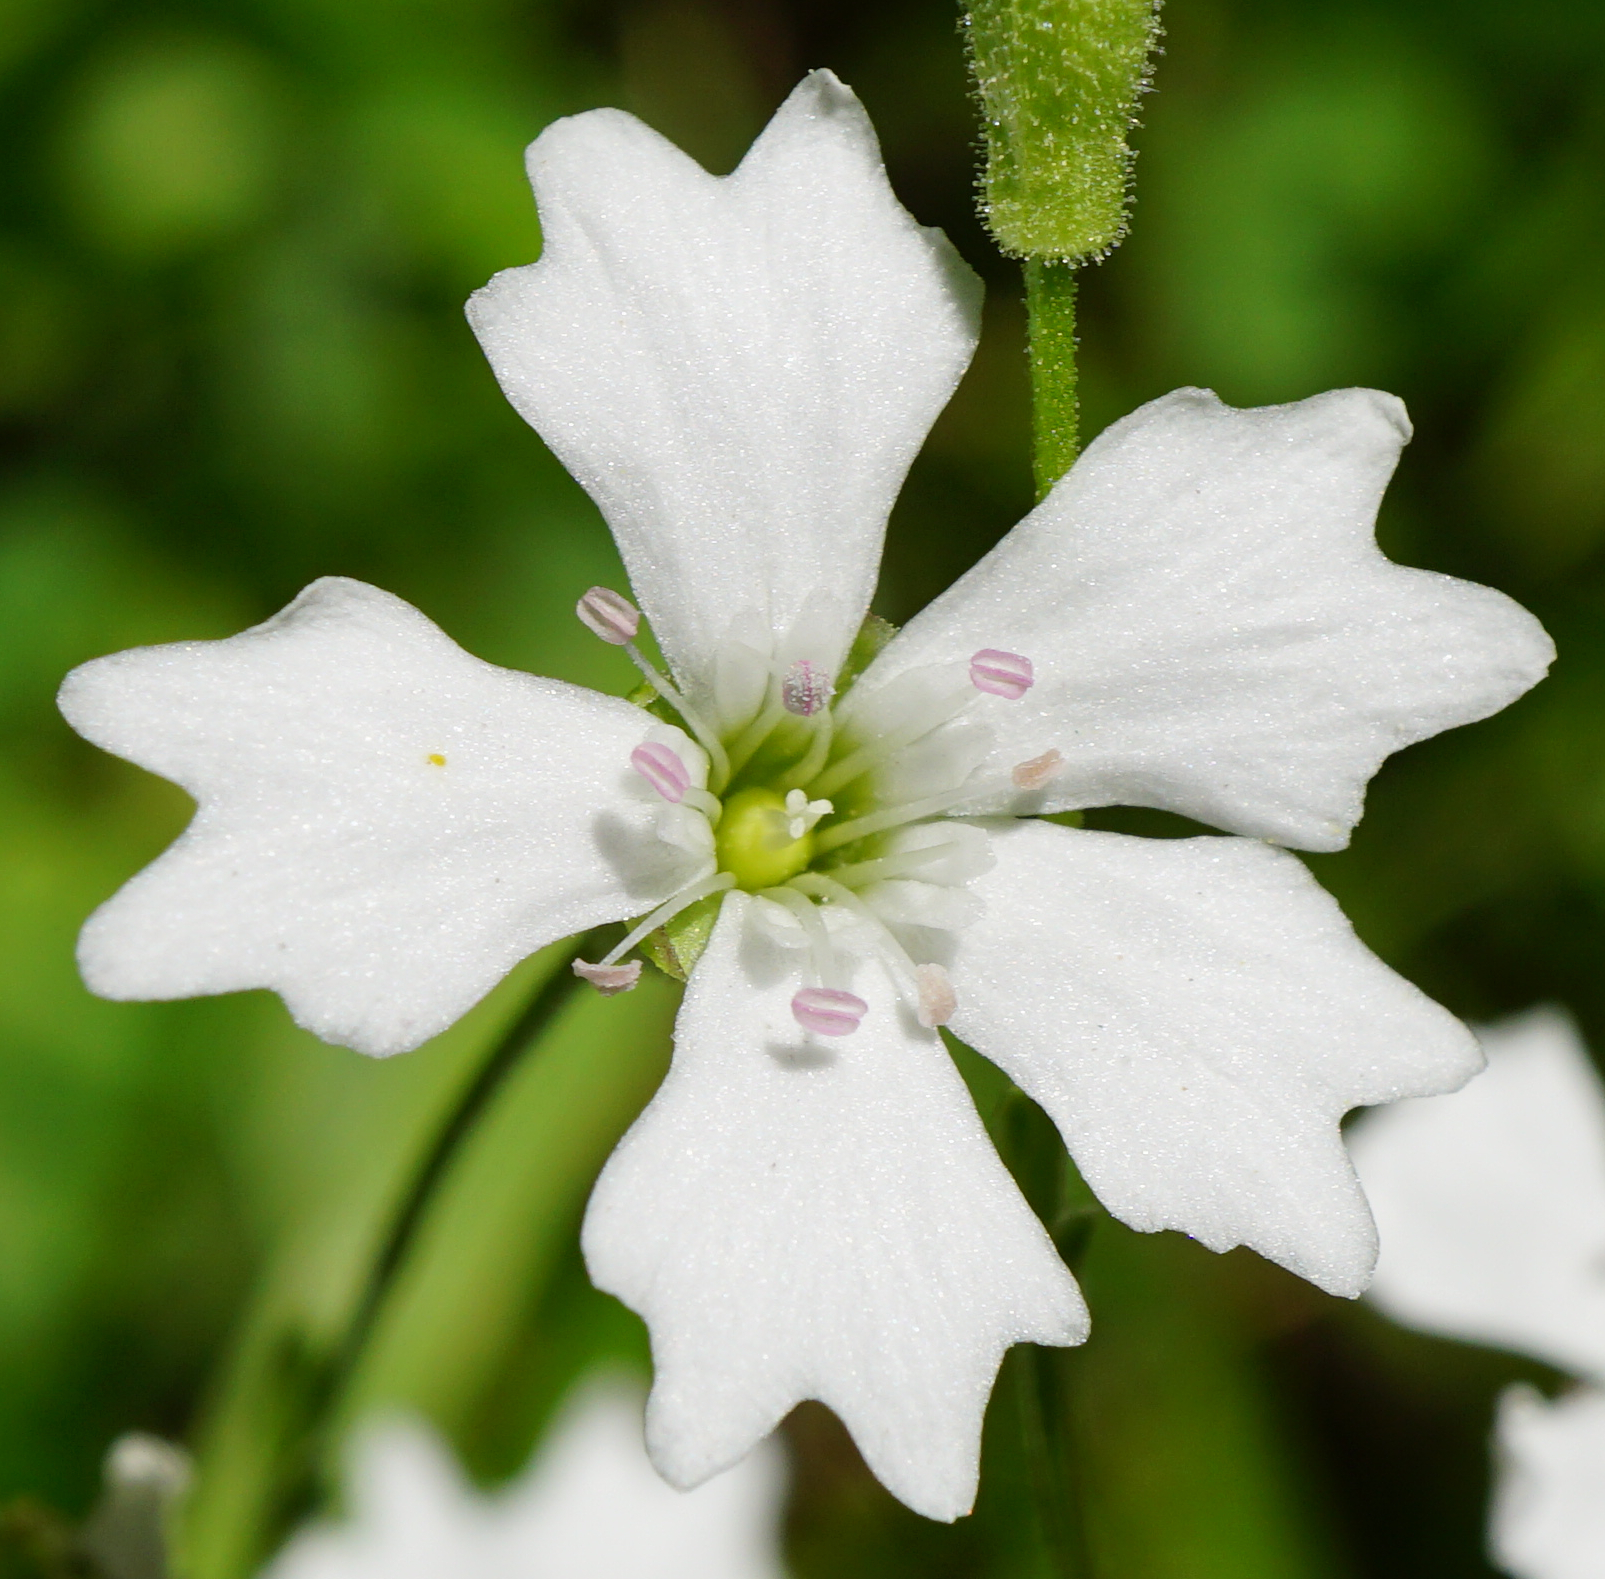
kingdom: Plantae
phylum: Tracheophyta
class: Magnoliopsida
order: Caryophyllales
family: Caryophyllaceae
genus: Heliosperma
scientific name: Heliosperma alpestre
